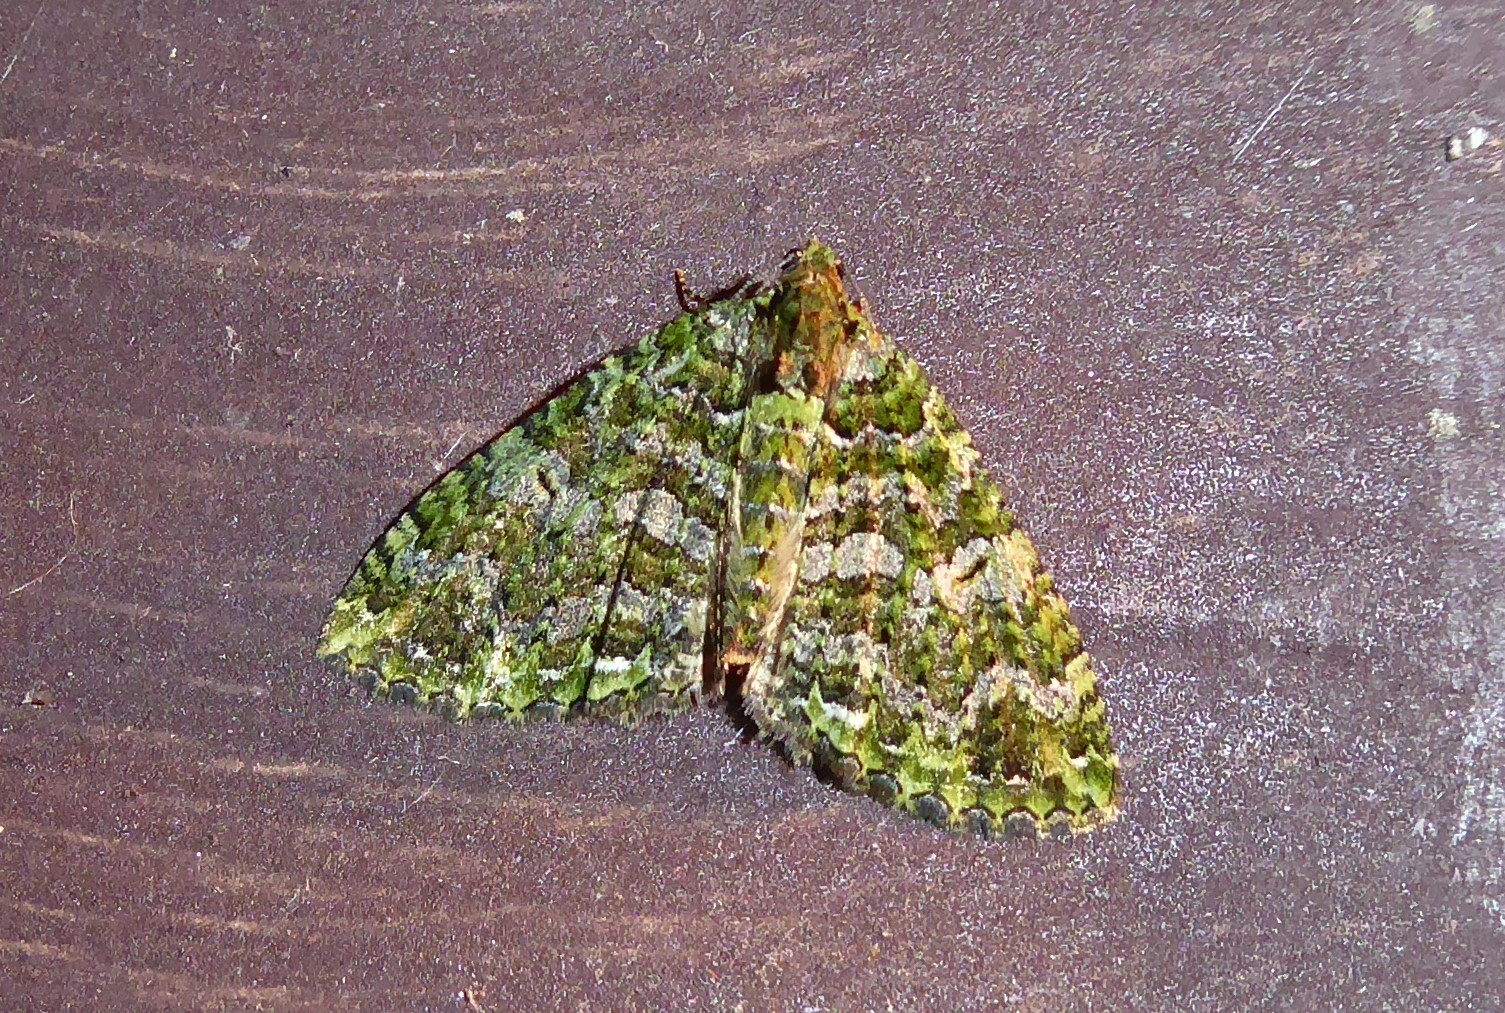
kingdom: Animalia
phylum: Arthropoda
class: Insecta
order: Lepidoptera
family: Geometridae
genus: Austrocidaria
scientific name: Austrocidaria similata
